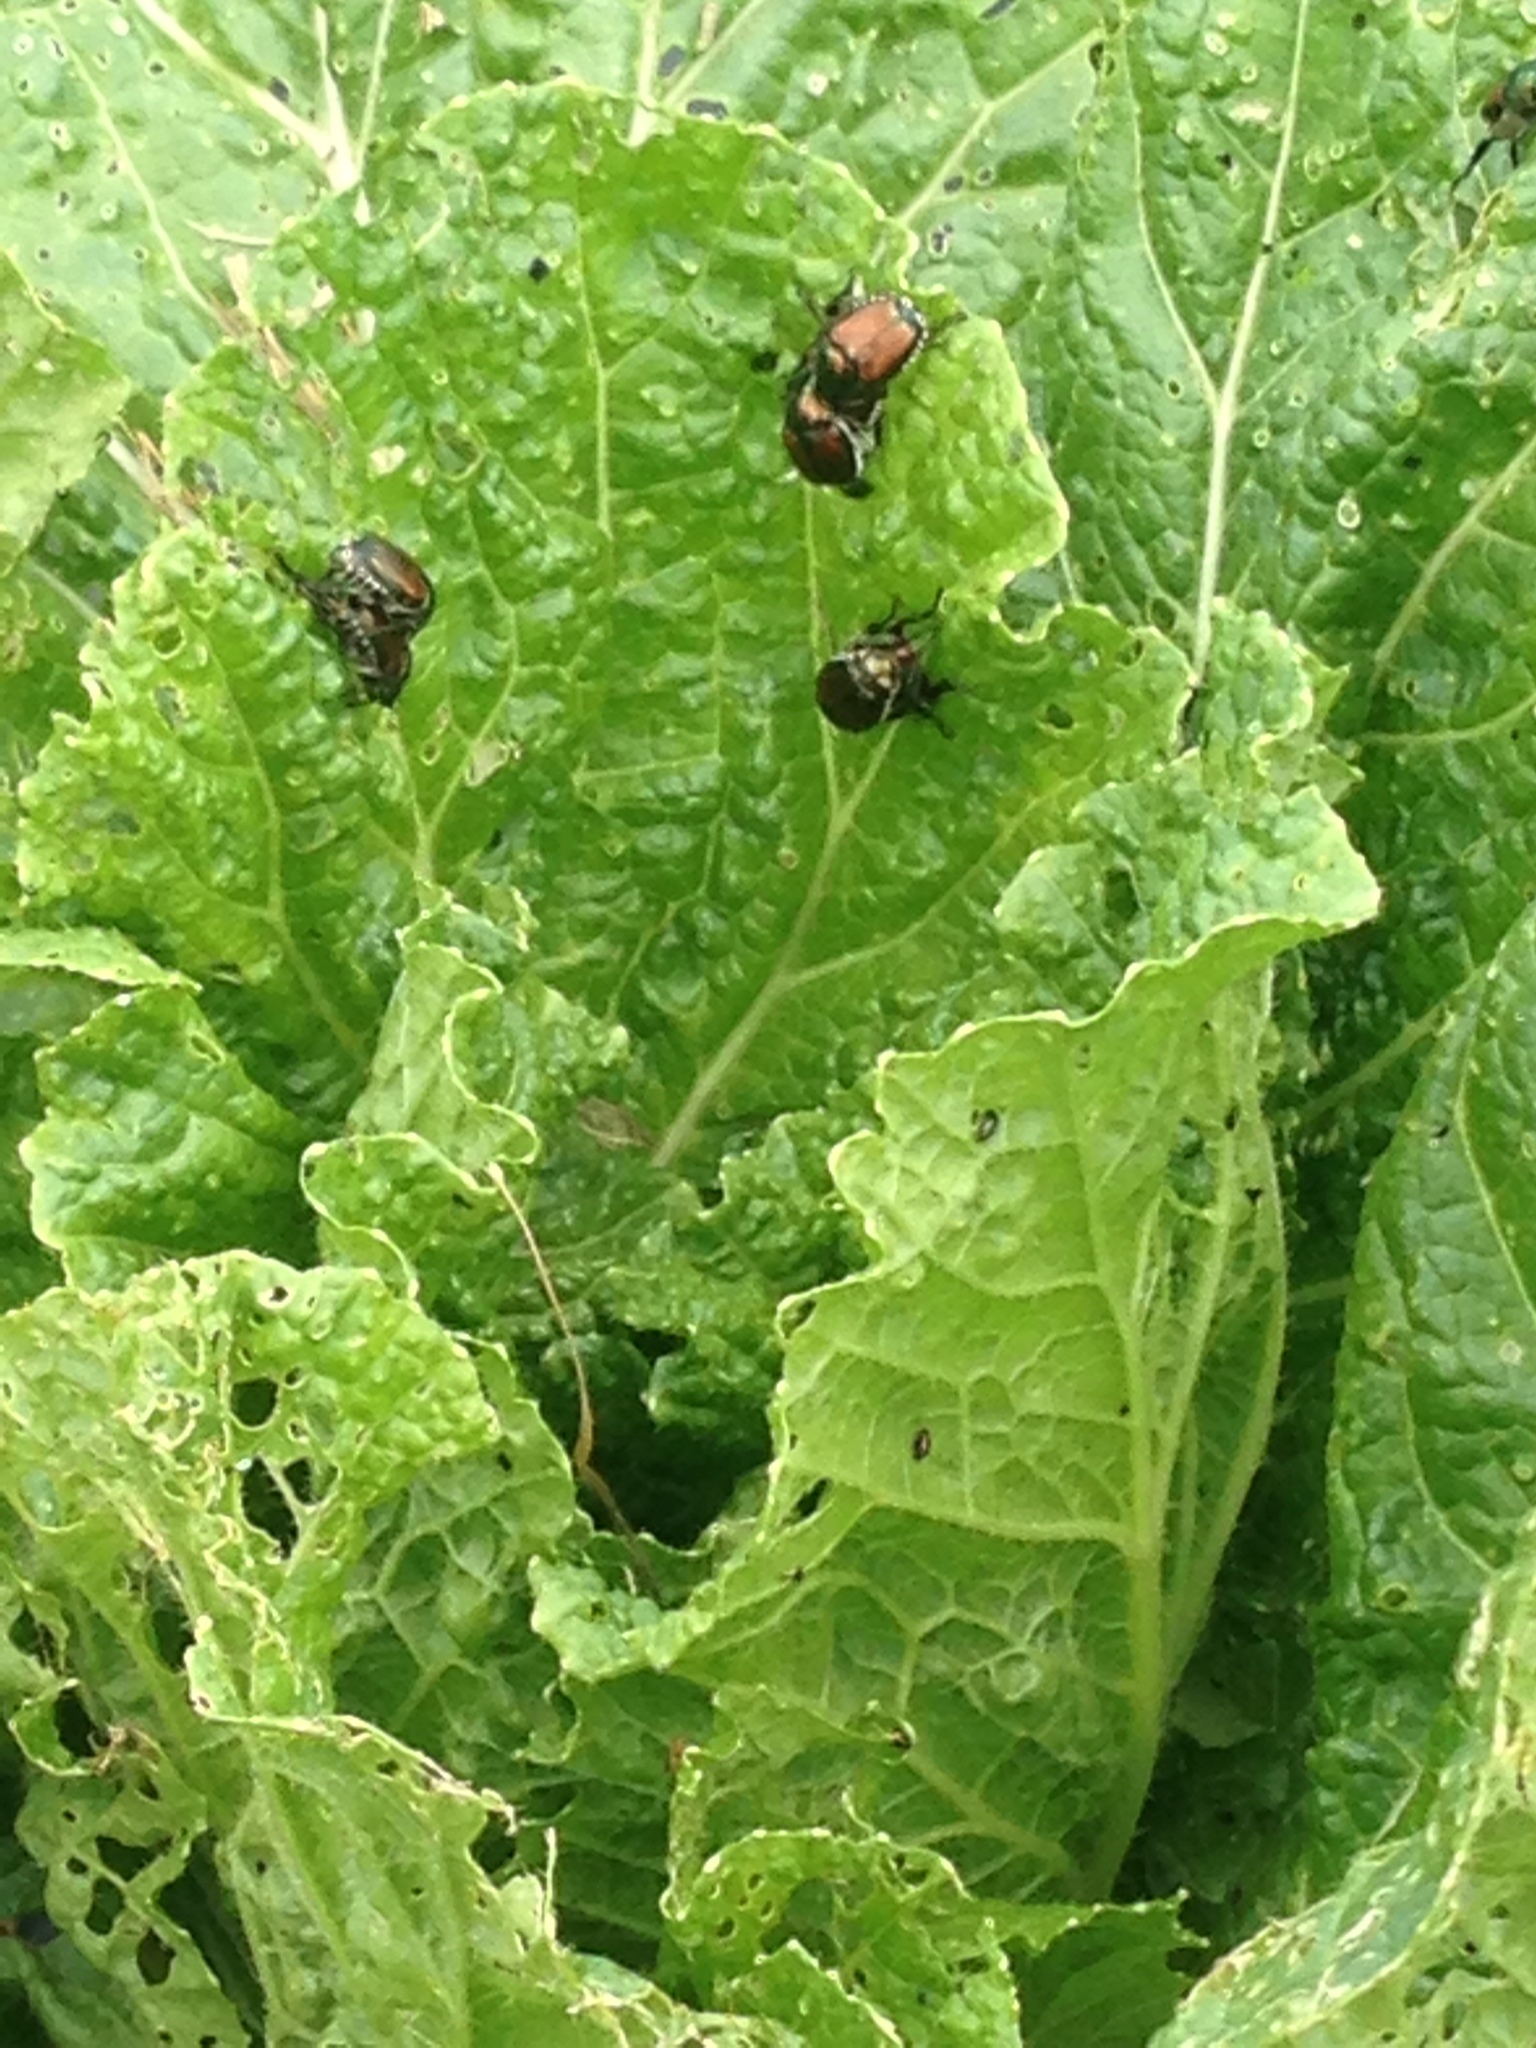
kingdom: Animalia
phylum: Arthropoda
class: Insecta
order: Coleoptera
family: Scarabaeidae
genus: Popillia
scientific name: Popillia japonica
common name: Japanese beetle
